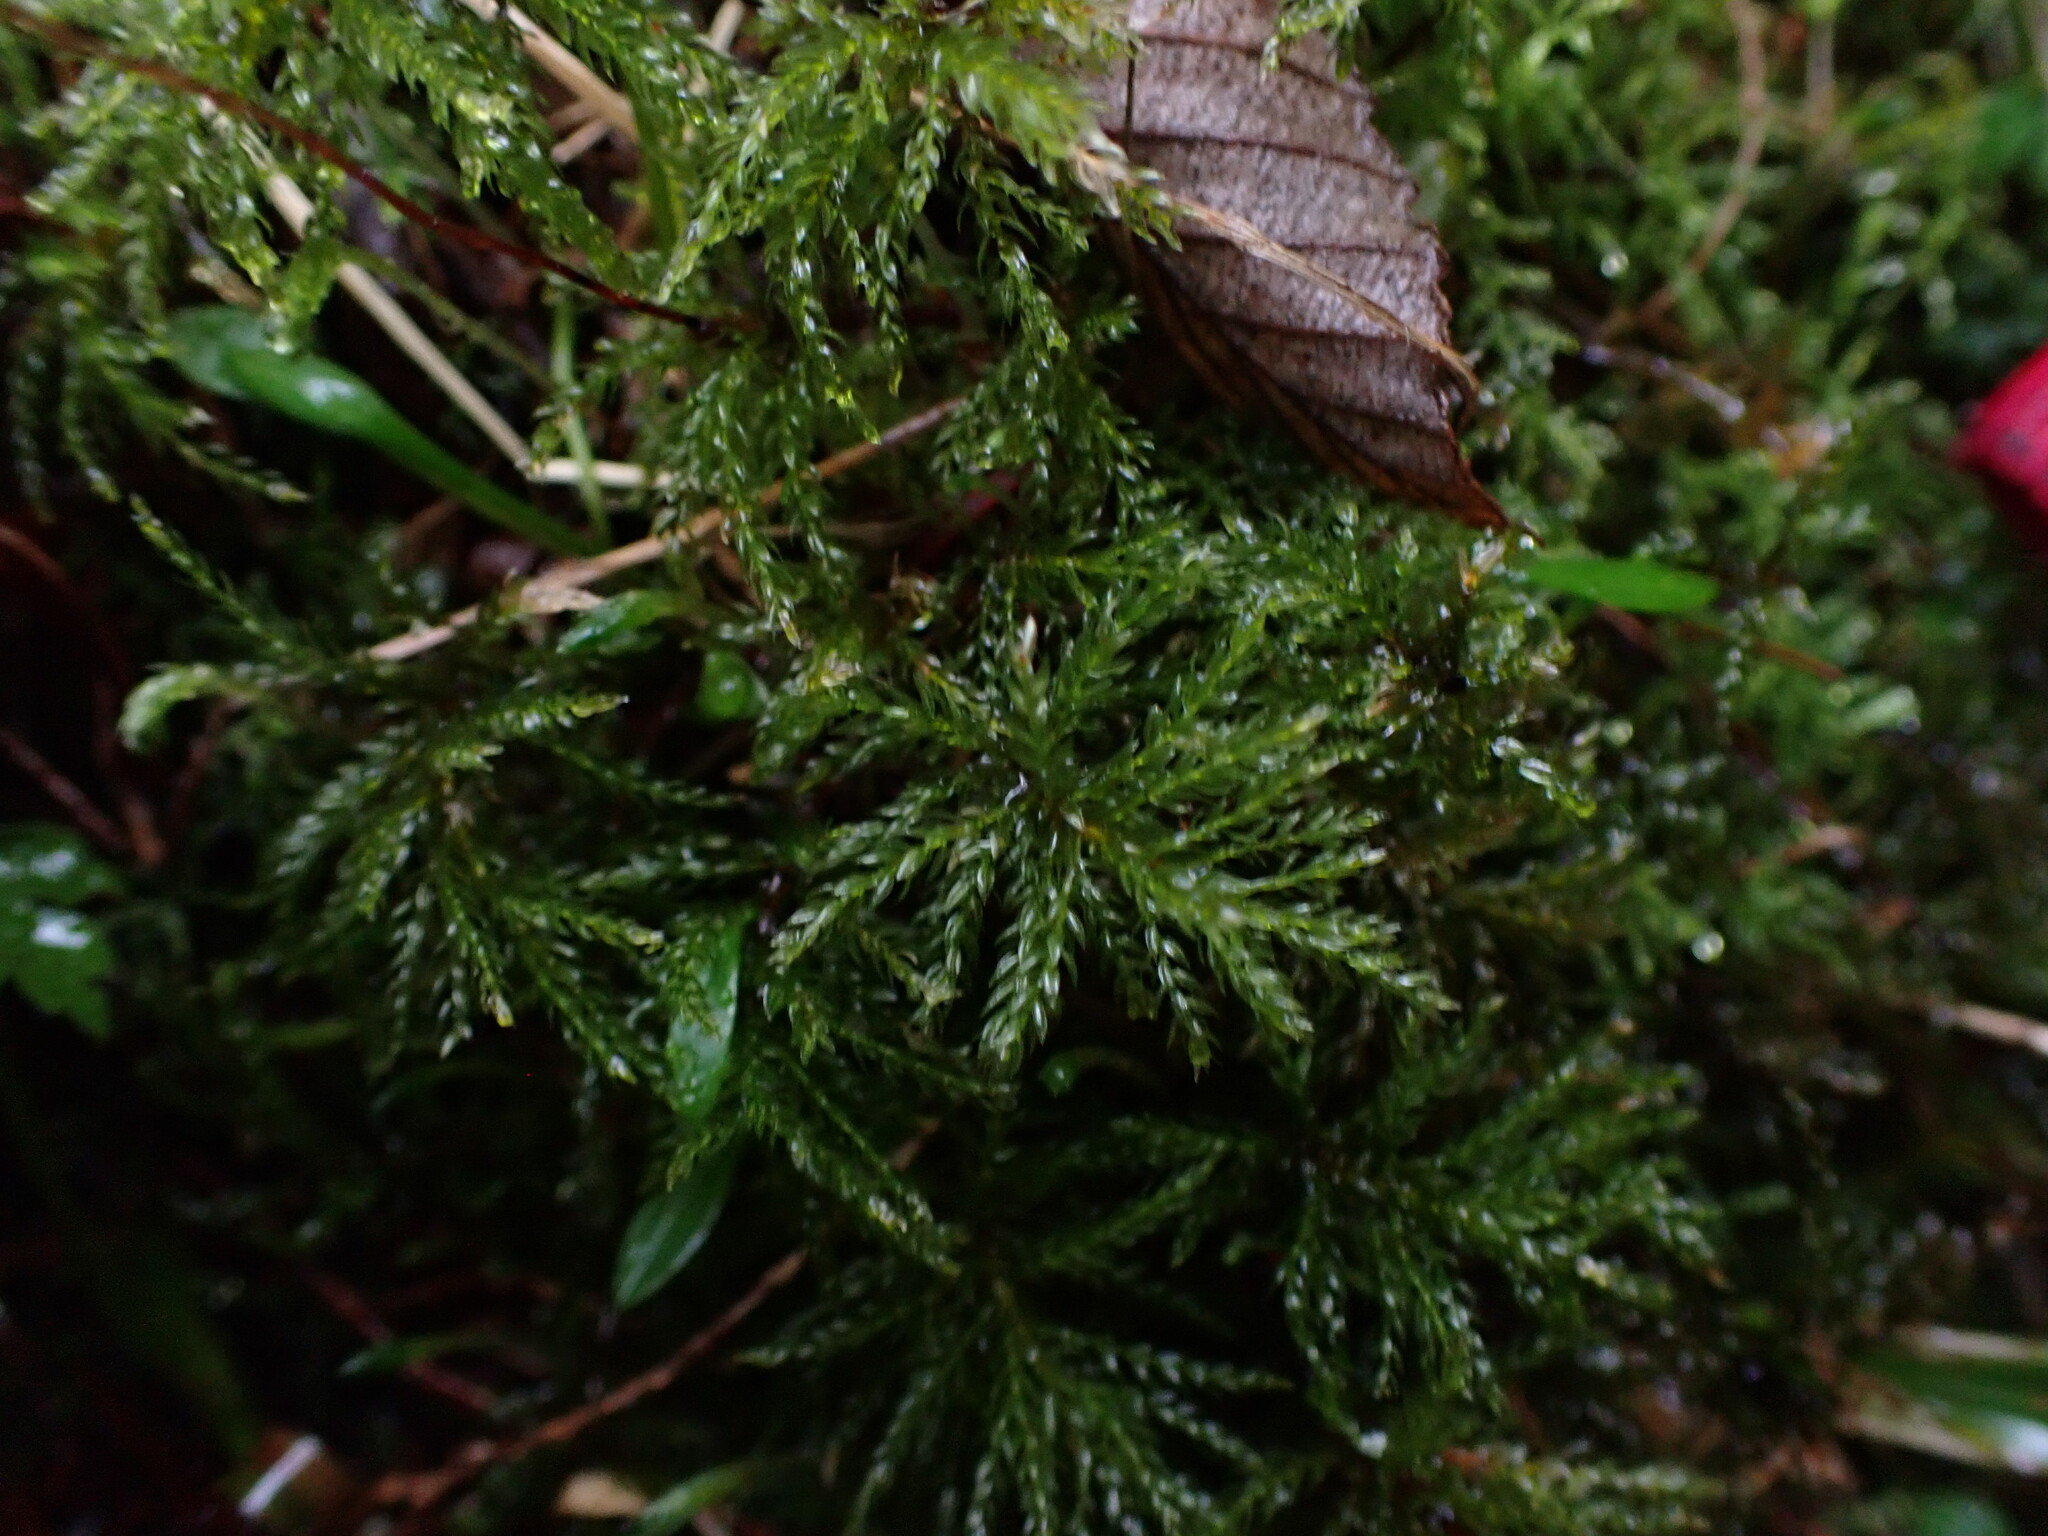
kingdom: Plantae
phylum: Bryophyta
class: Bryopsida
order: Bryales
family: Mniaceae
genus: Leucolepis
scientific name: Leucolepis acanthoneura
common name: Leucolepis umbrella moss
